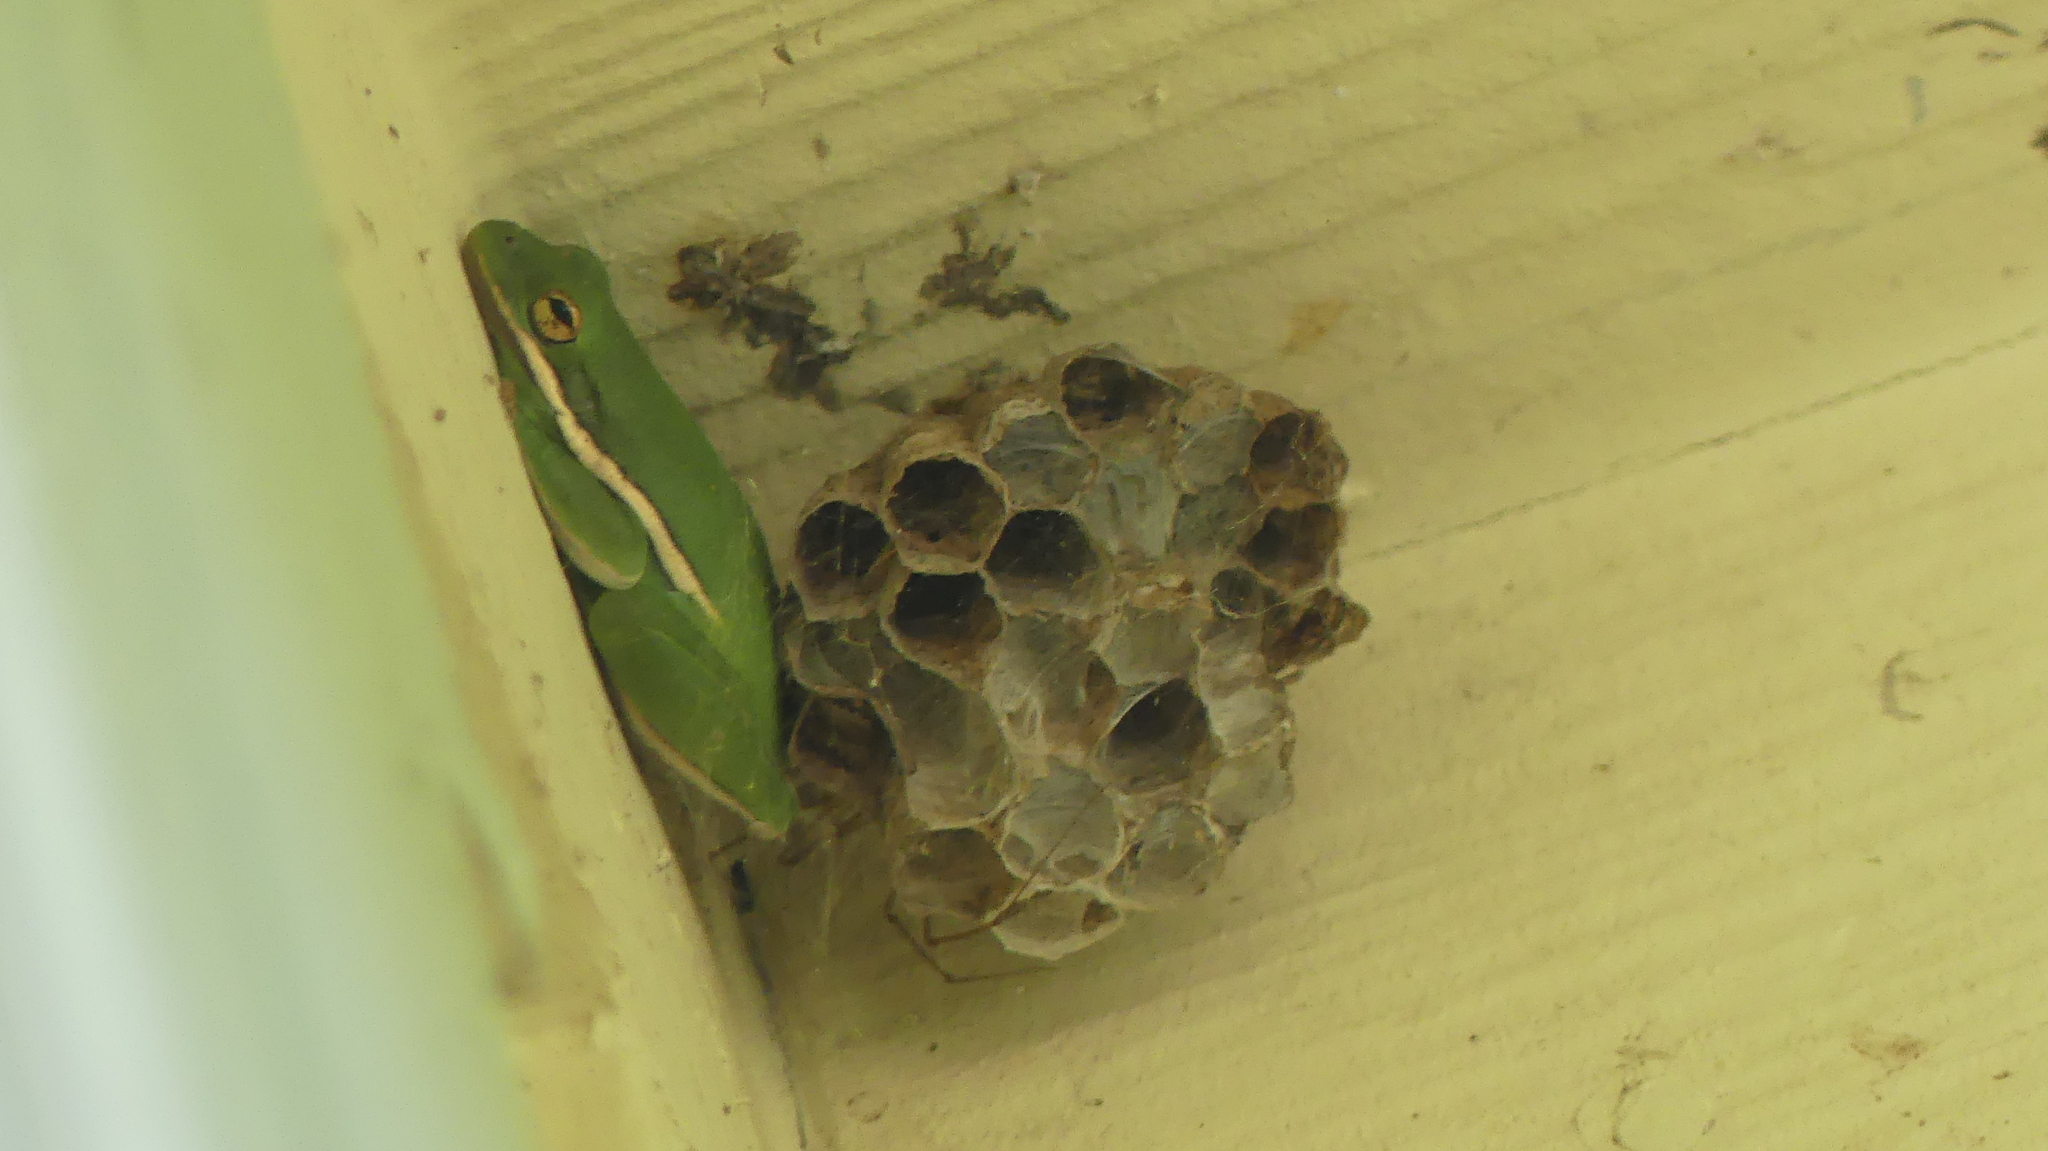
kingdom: Animalia
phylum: Chordata
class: Amphibia
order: Anura
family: Hylidae
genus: Dryophytes
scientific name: Dryophytes cinereus
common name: Green treefrog
